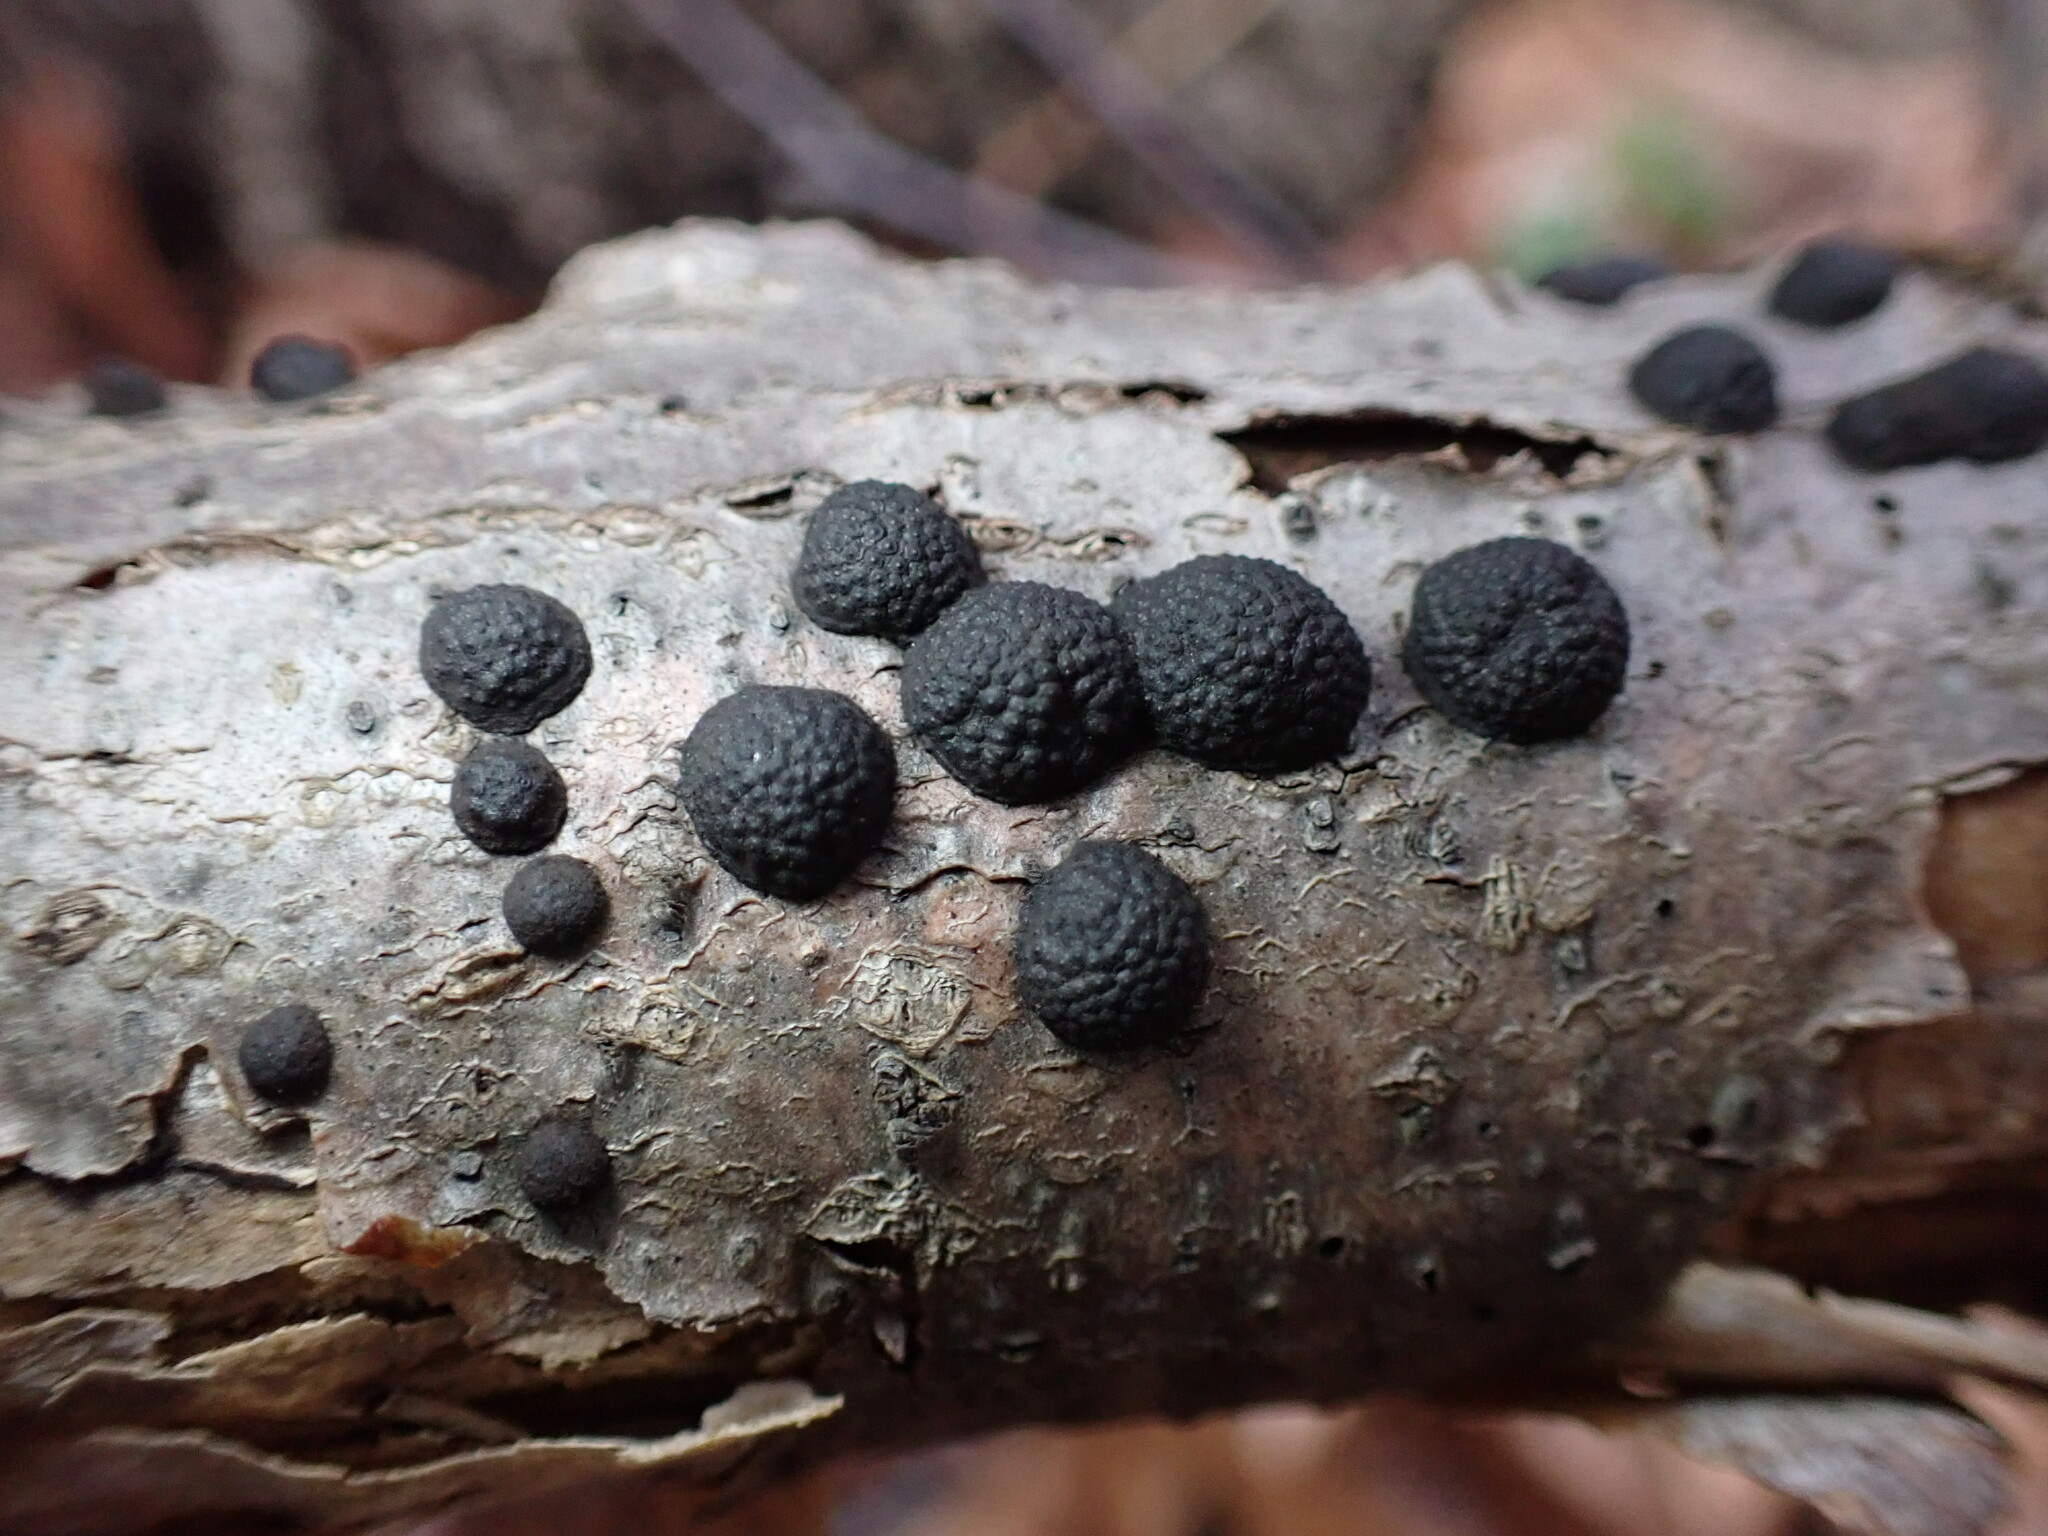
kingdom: Fungi
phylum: Ascomycota
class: Sordariomycetes
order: Xylariales
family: Hypoxylaceae
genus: Annulohypoxylon
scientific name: Annulohypoxylon annulatum
